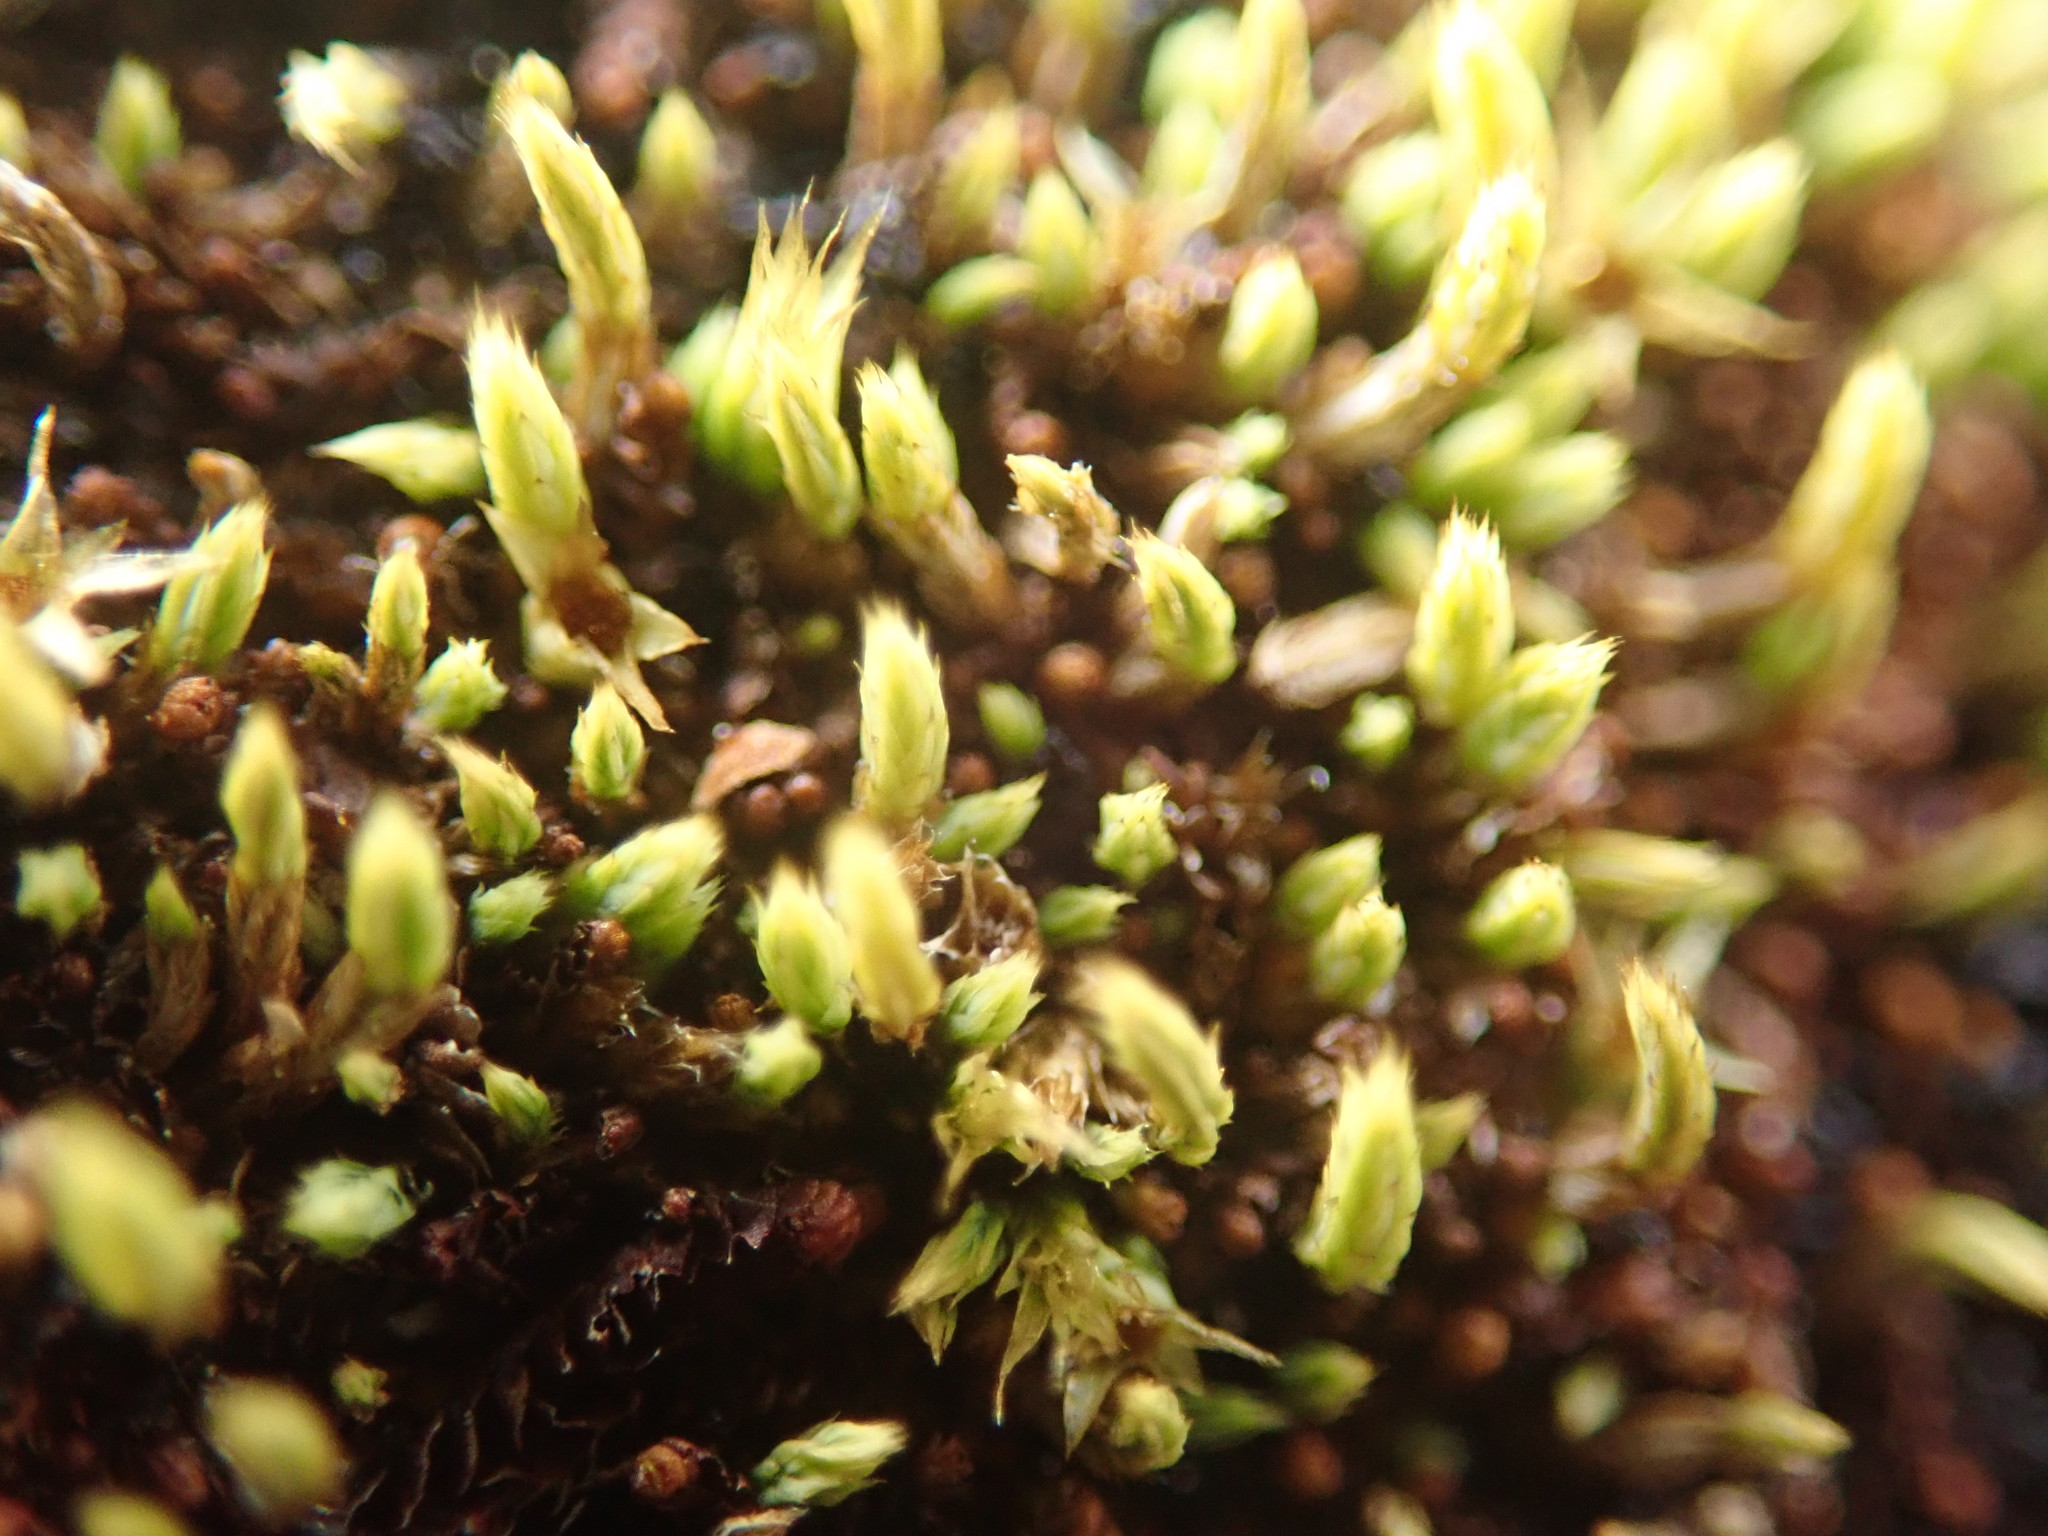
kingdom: Plantae
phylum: Bryophyta
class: Bryopsida
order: Bartramiales
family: Bartramiaceae
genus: Conostomum
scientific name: Conostomum tetragonum
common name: Helmet moss
